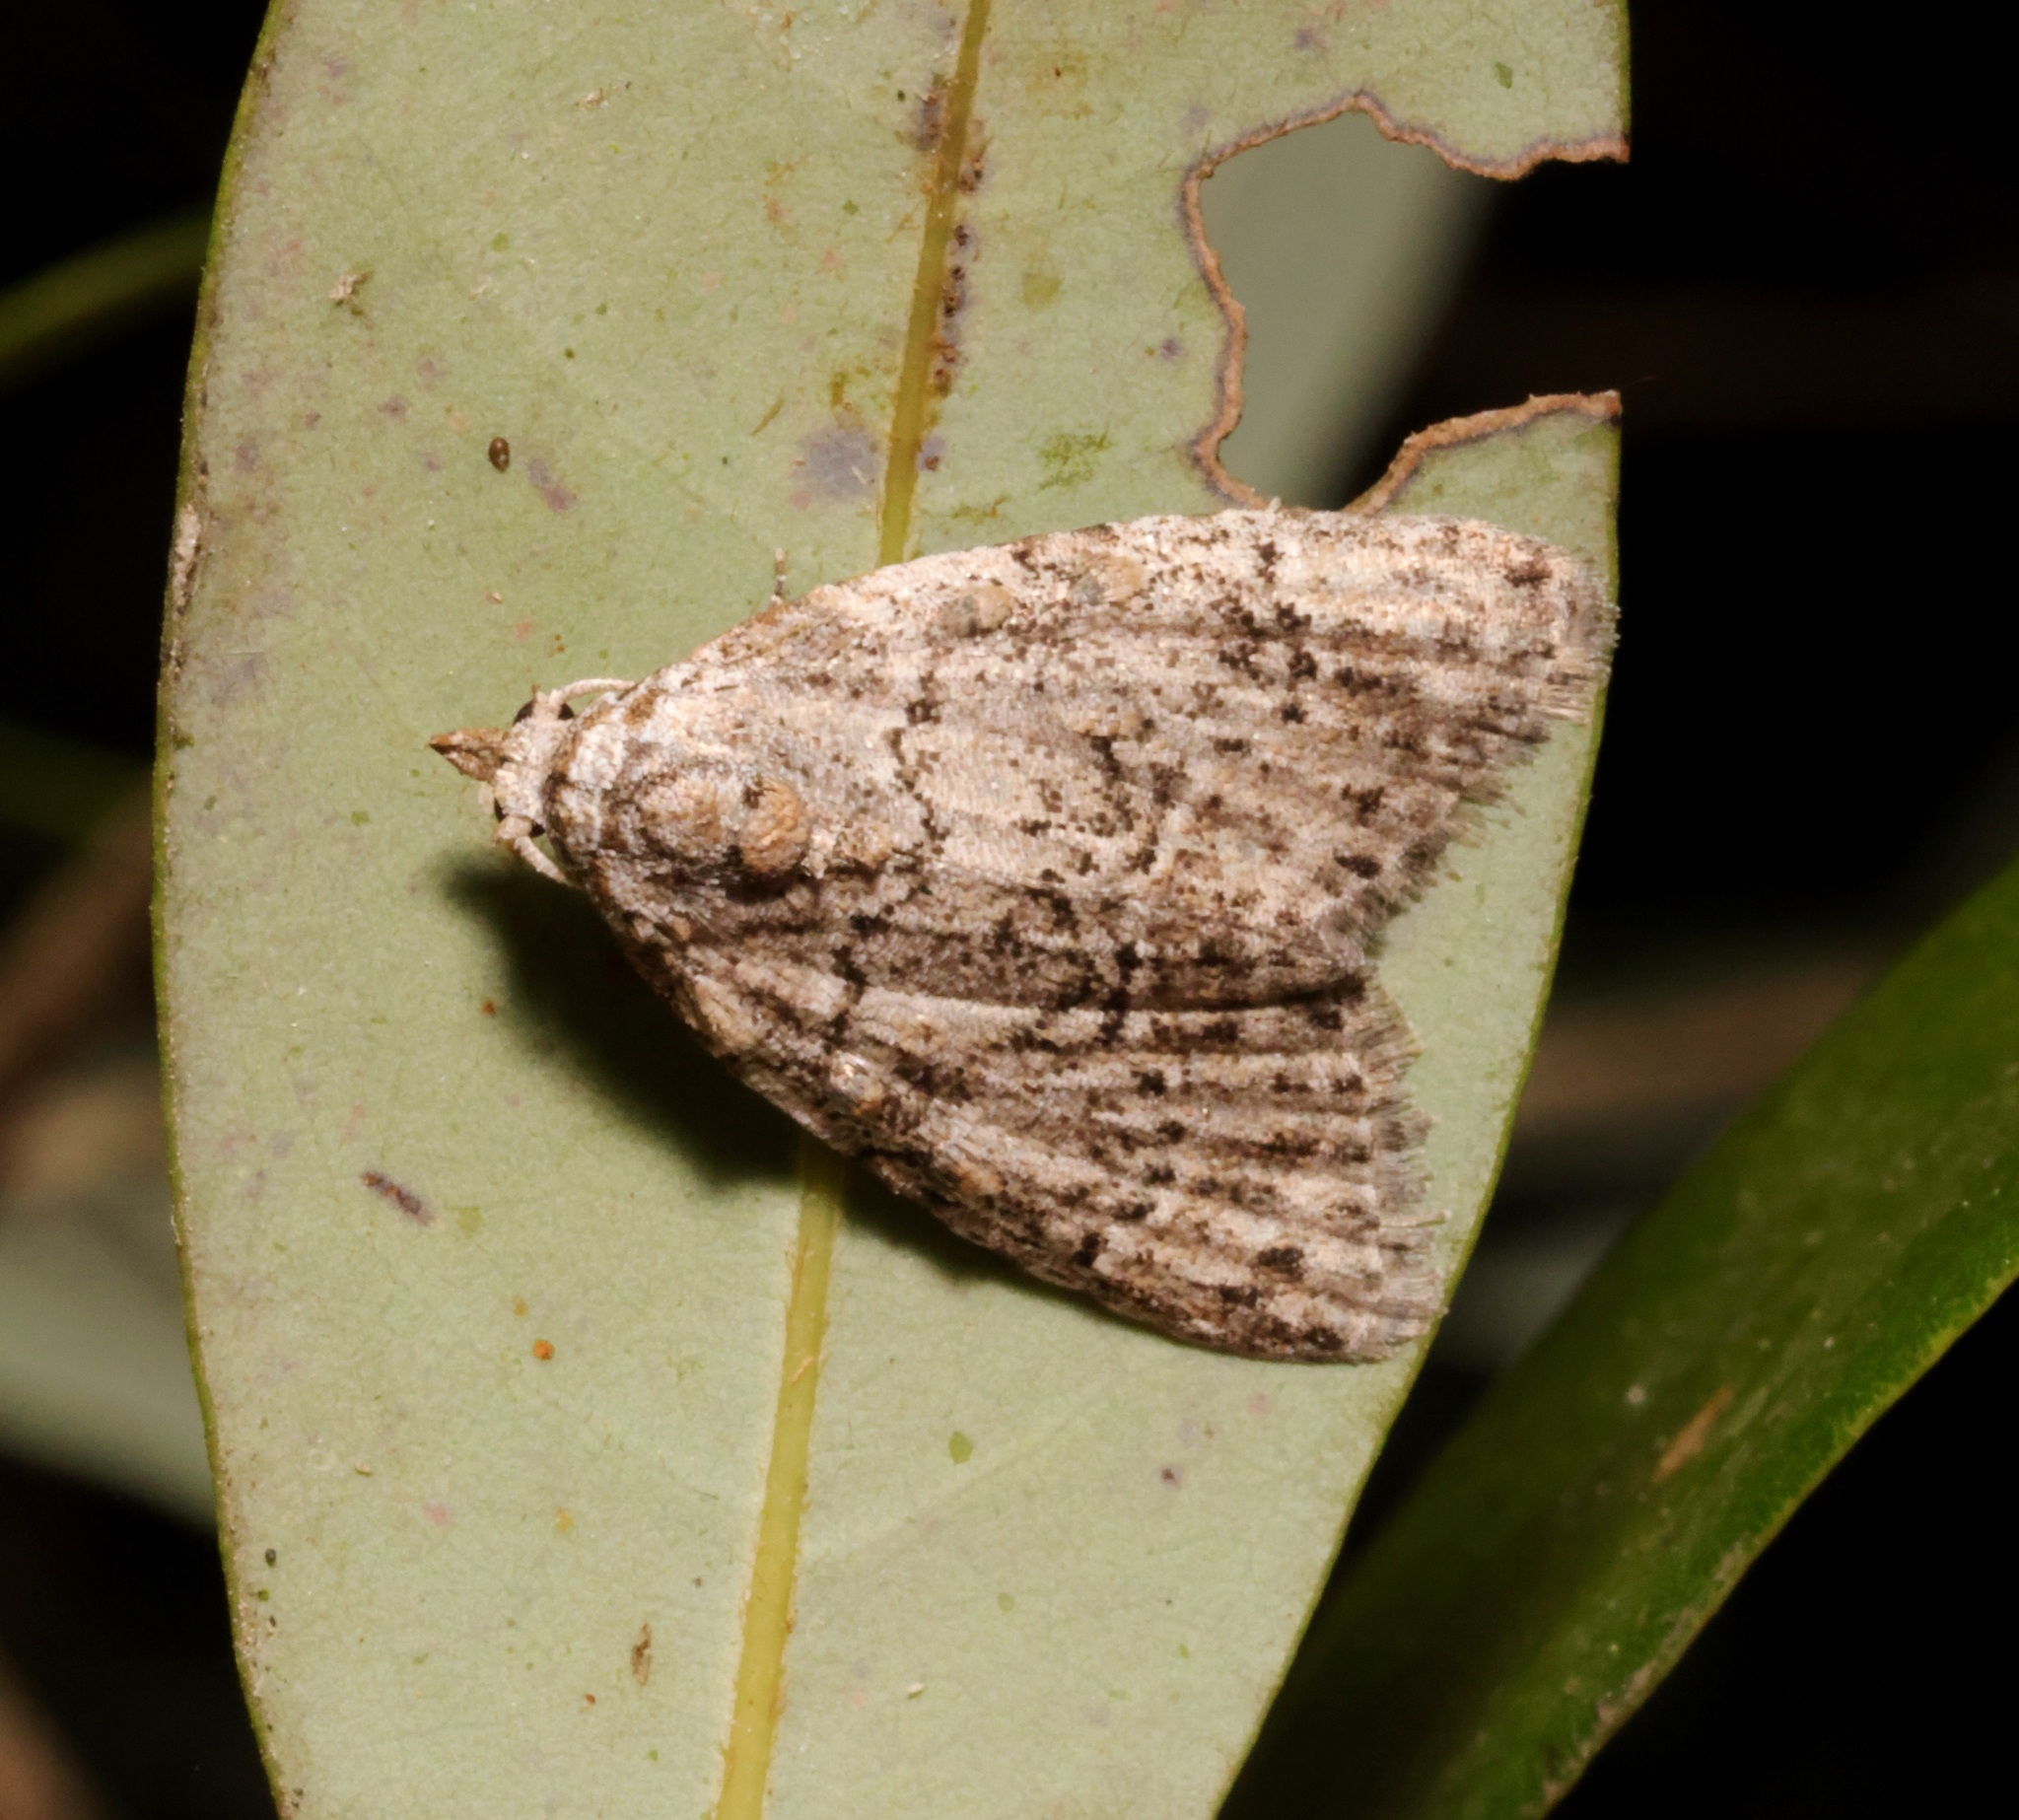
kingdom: Animalia
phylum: Arthropoda
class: Insecta
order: Lepidoptera
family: Nolidae
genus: Meganola
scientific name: Meganola zolotuhini
